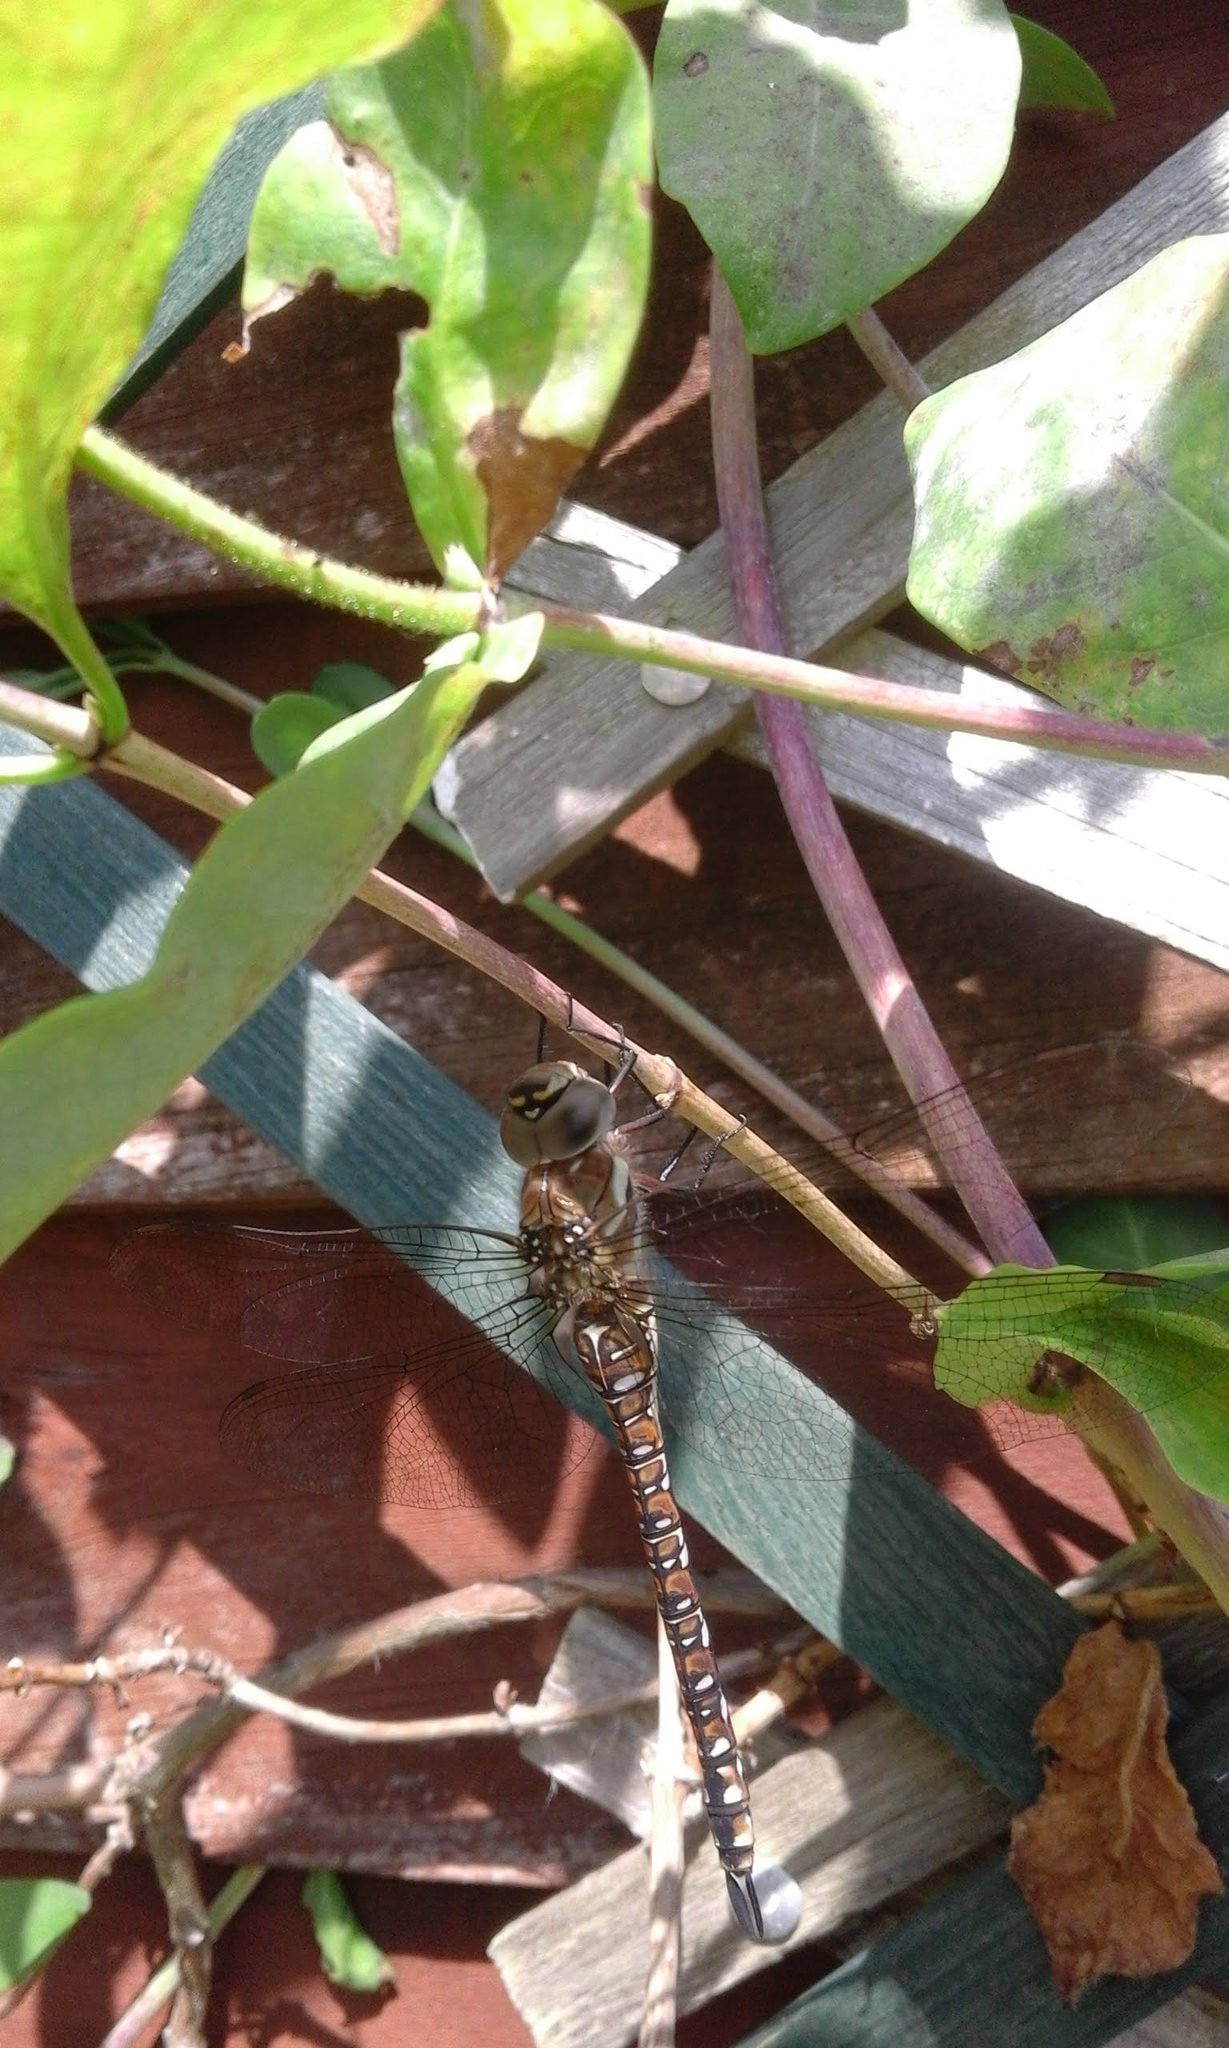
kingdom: Animalia
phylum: Arthropoda
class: Insecta
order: Odonata
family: Aeshnidae
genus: Aeshna
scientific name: Aeshna mixta
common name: Migrant hawker
